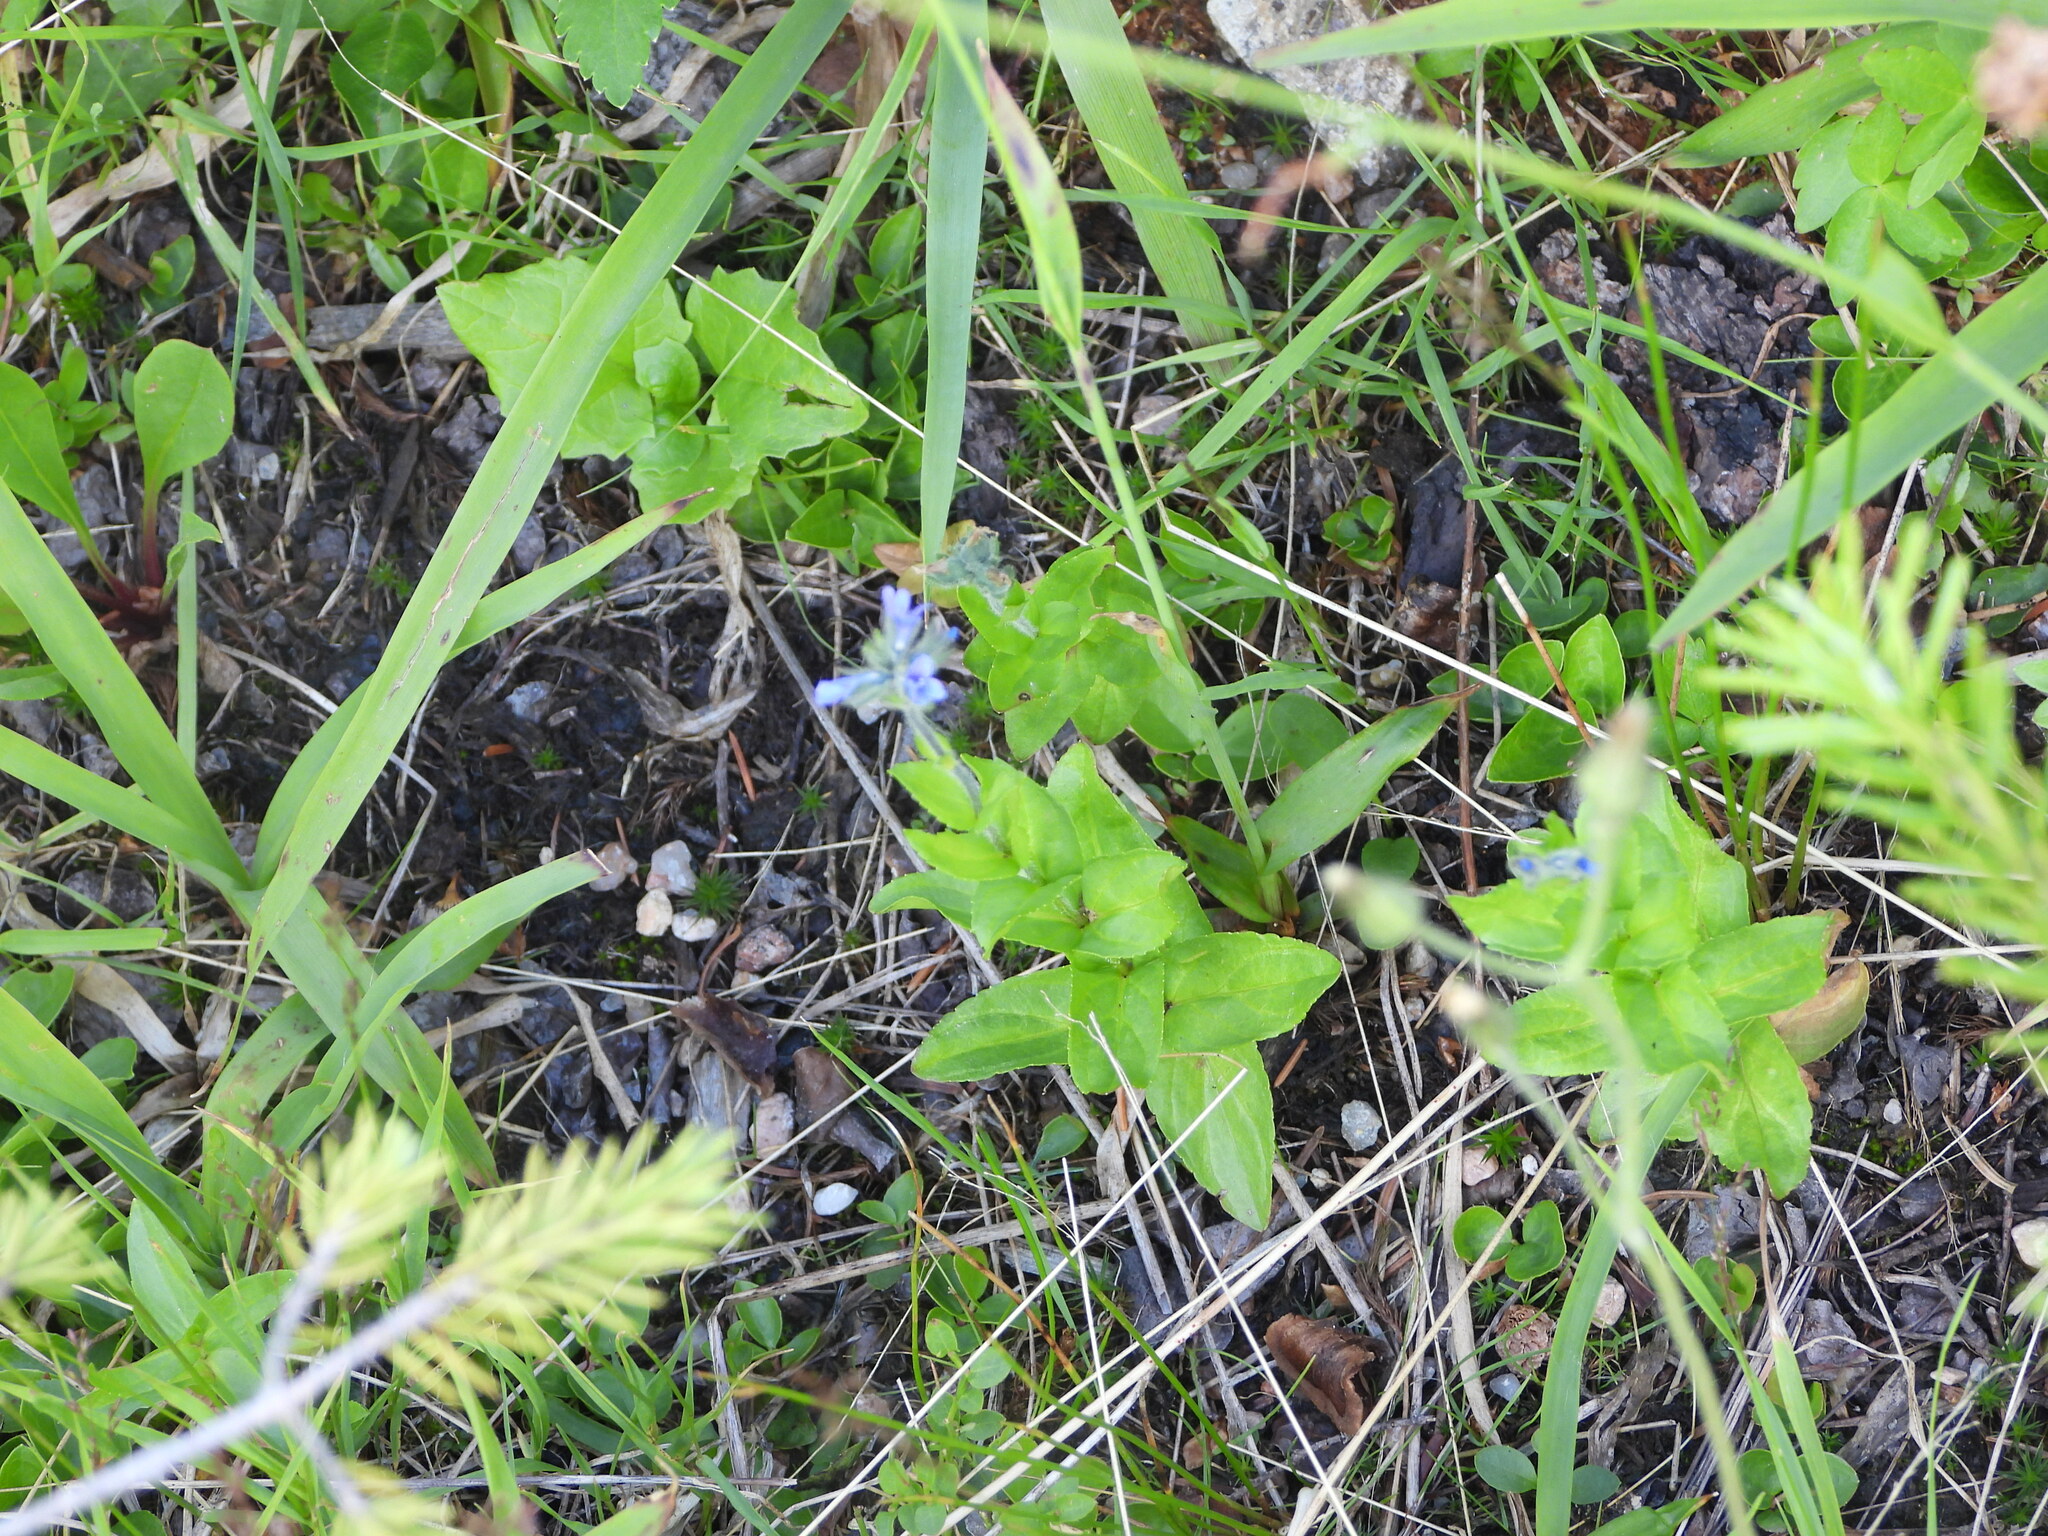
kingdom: Plantae
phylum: Tracheophyta
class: Magnoliopsida
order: Lamiales
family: Plantaginaceae
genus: Veronica
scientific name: Veronica wormskjoldii
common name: American alpine speedwell
